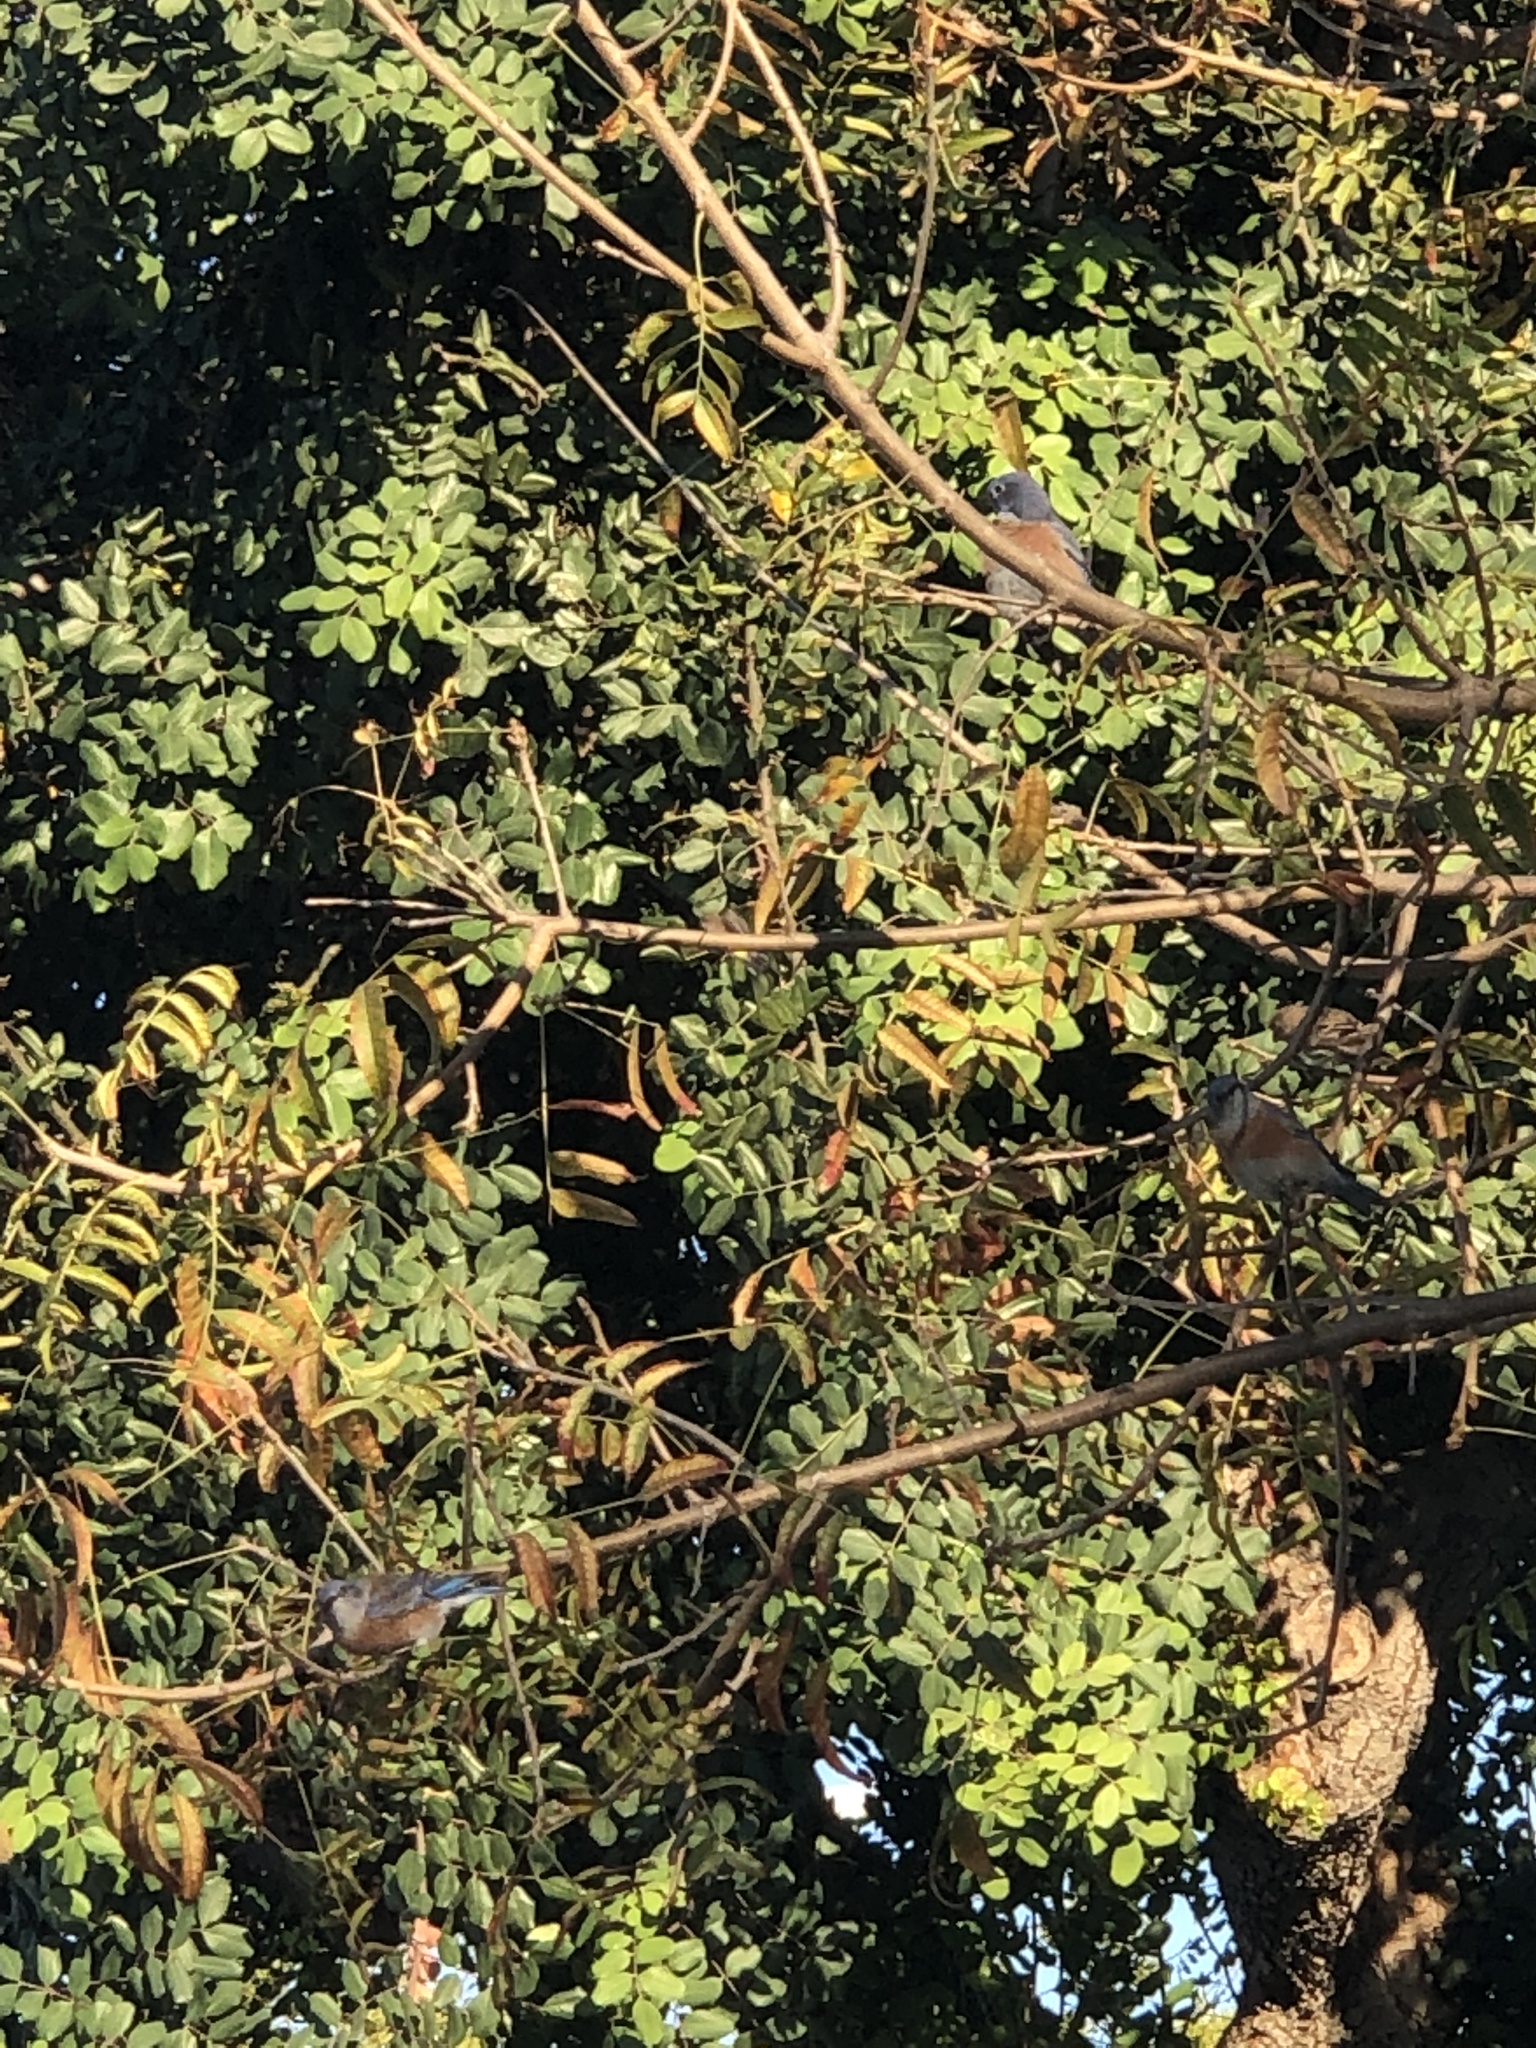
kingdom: Animalia
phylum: Chordata
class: Aves
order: Passeriformes
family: Turdidae
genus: Sialia
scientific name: Sialia mexicana
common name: Western bluebird
